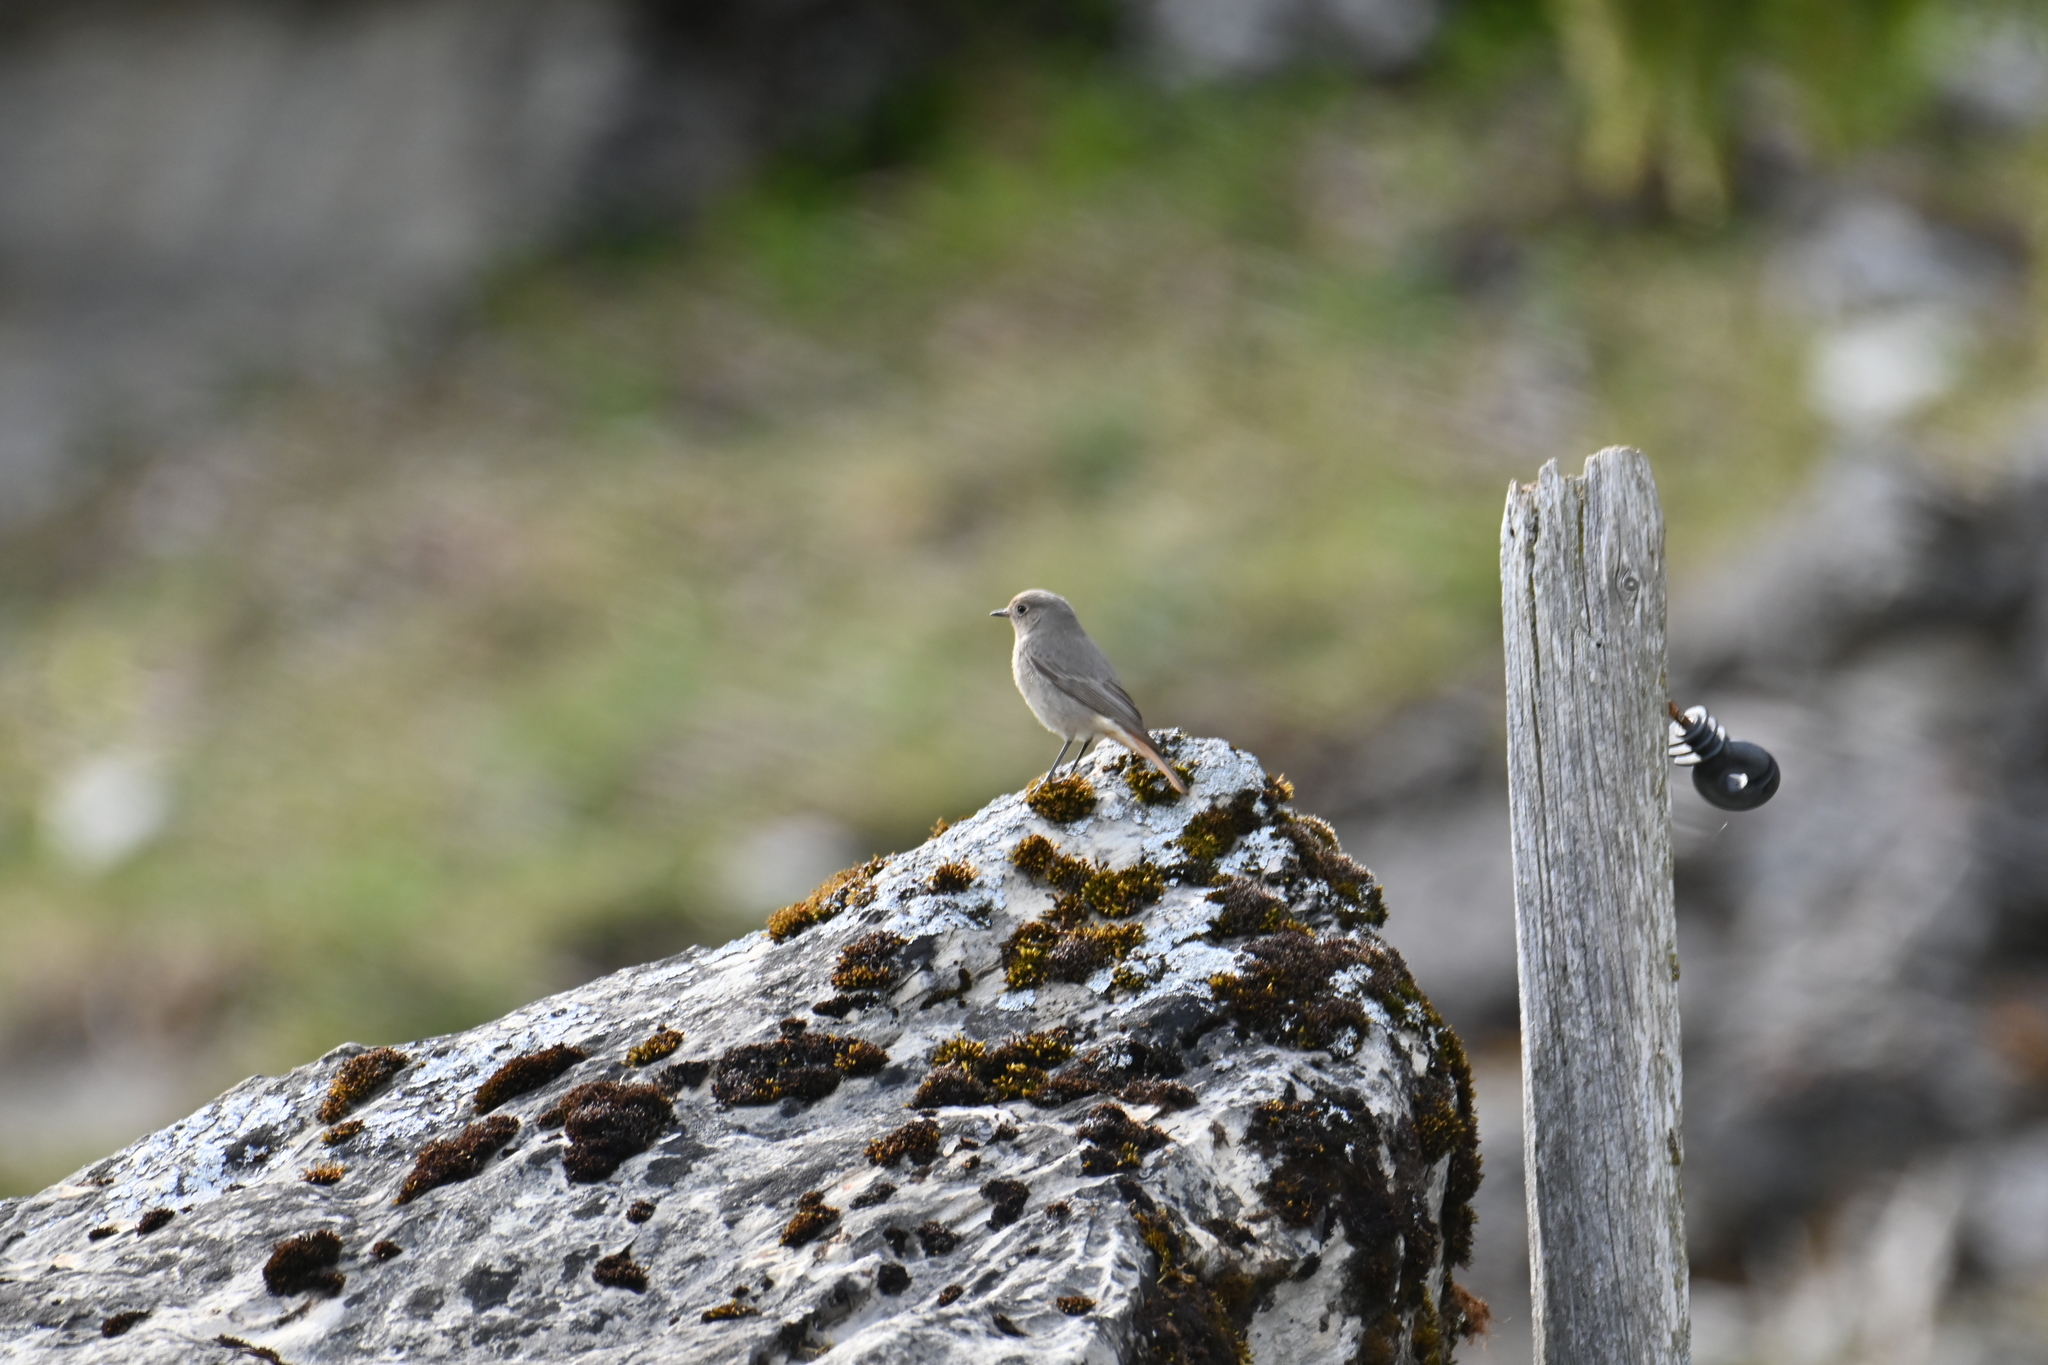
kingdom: Animalia
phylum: Chordata
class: Aves
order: Passeriformes
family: Muscicapidae
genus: Phoenicurus
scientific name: Phoenicurus ochruros
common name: Black redstart
